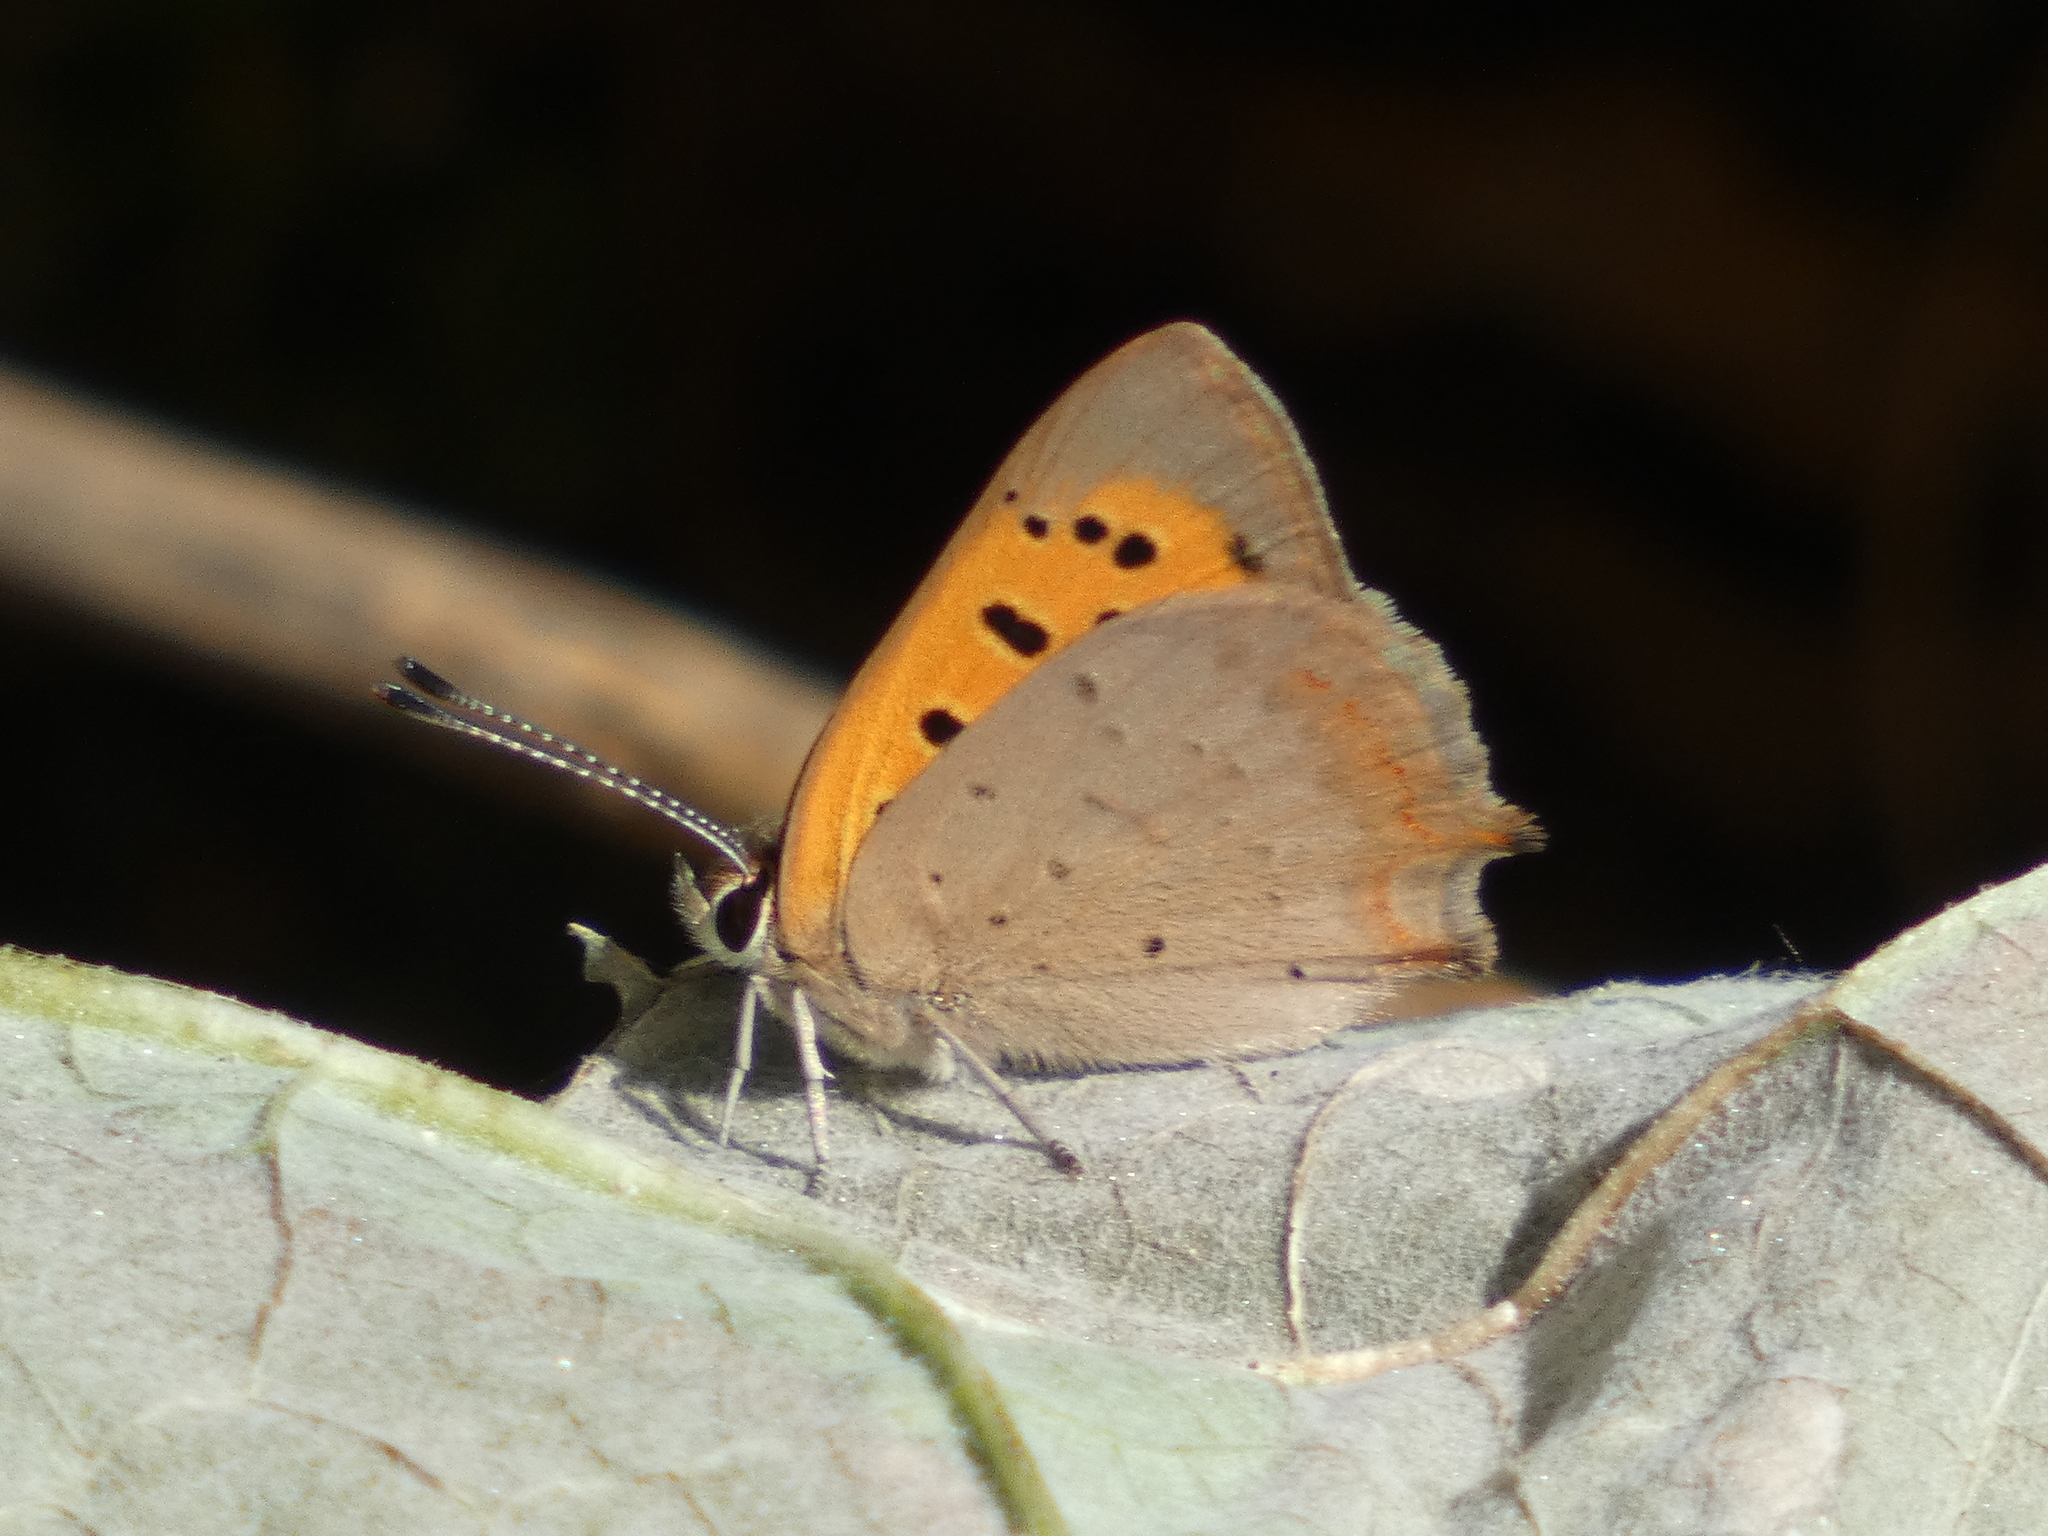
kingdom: Animalia
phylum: Arthropoda
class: Insecta
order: Lepidoptera
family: Lycaenidae
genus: Lycaena
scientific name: Lycaena phlaeas
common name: Small copper
